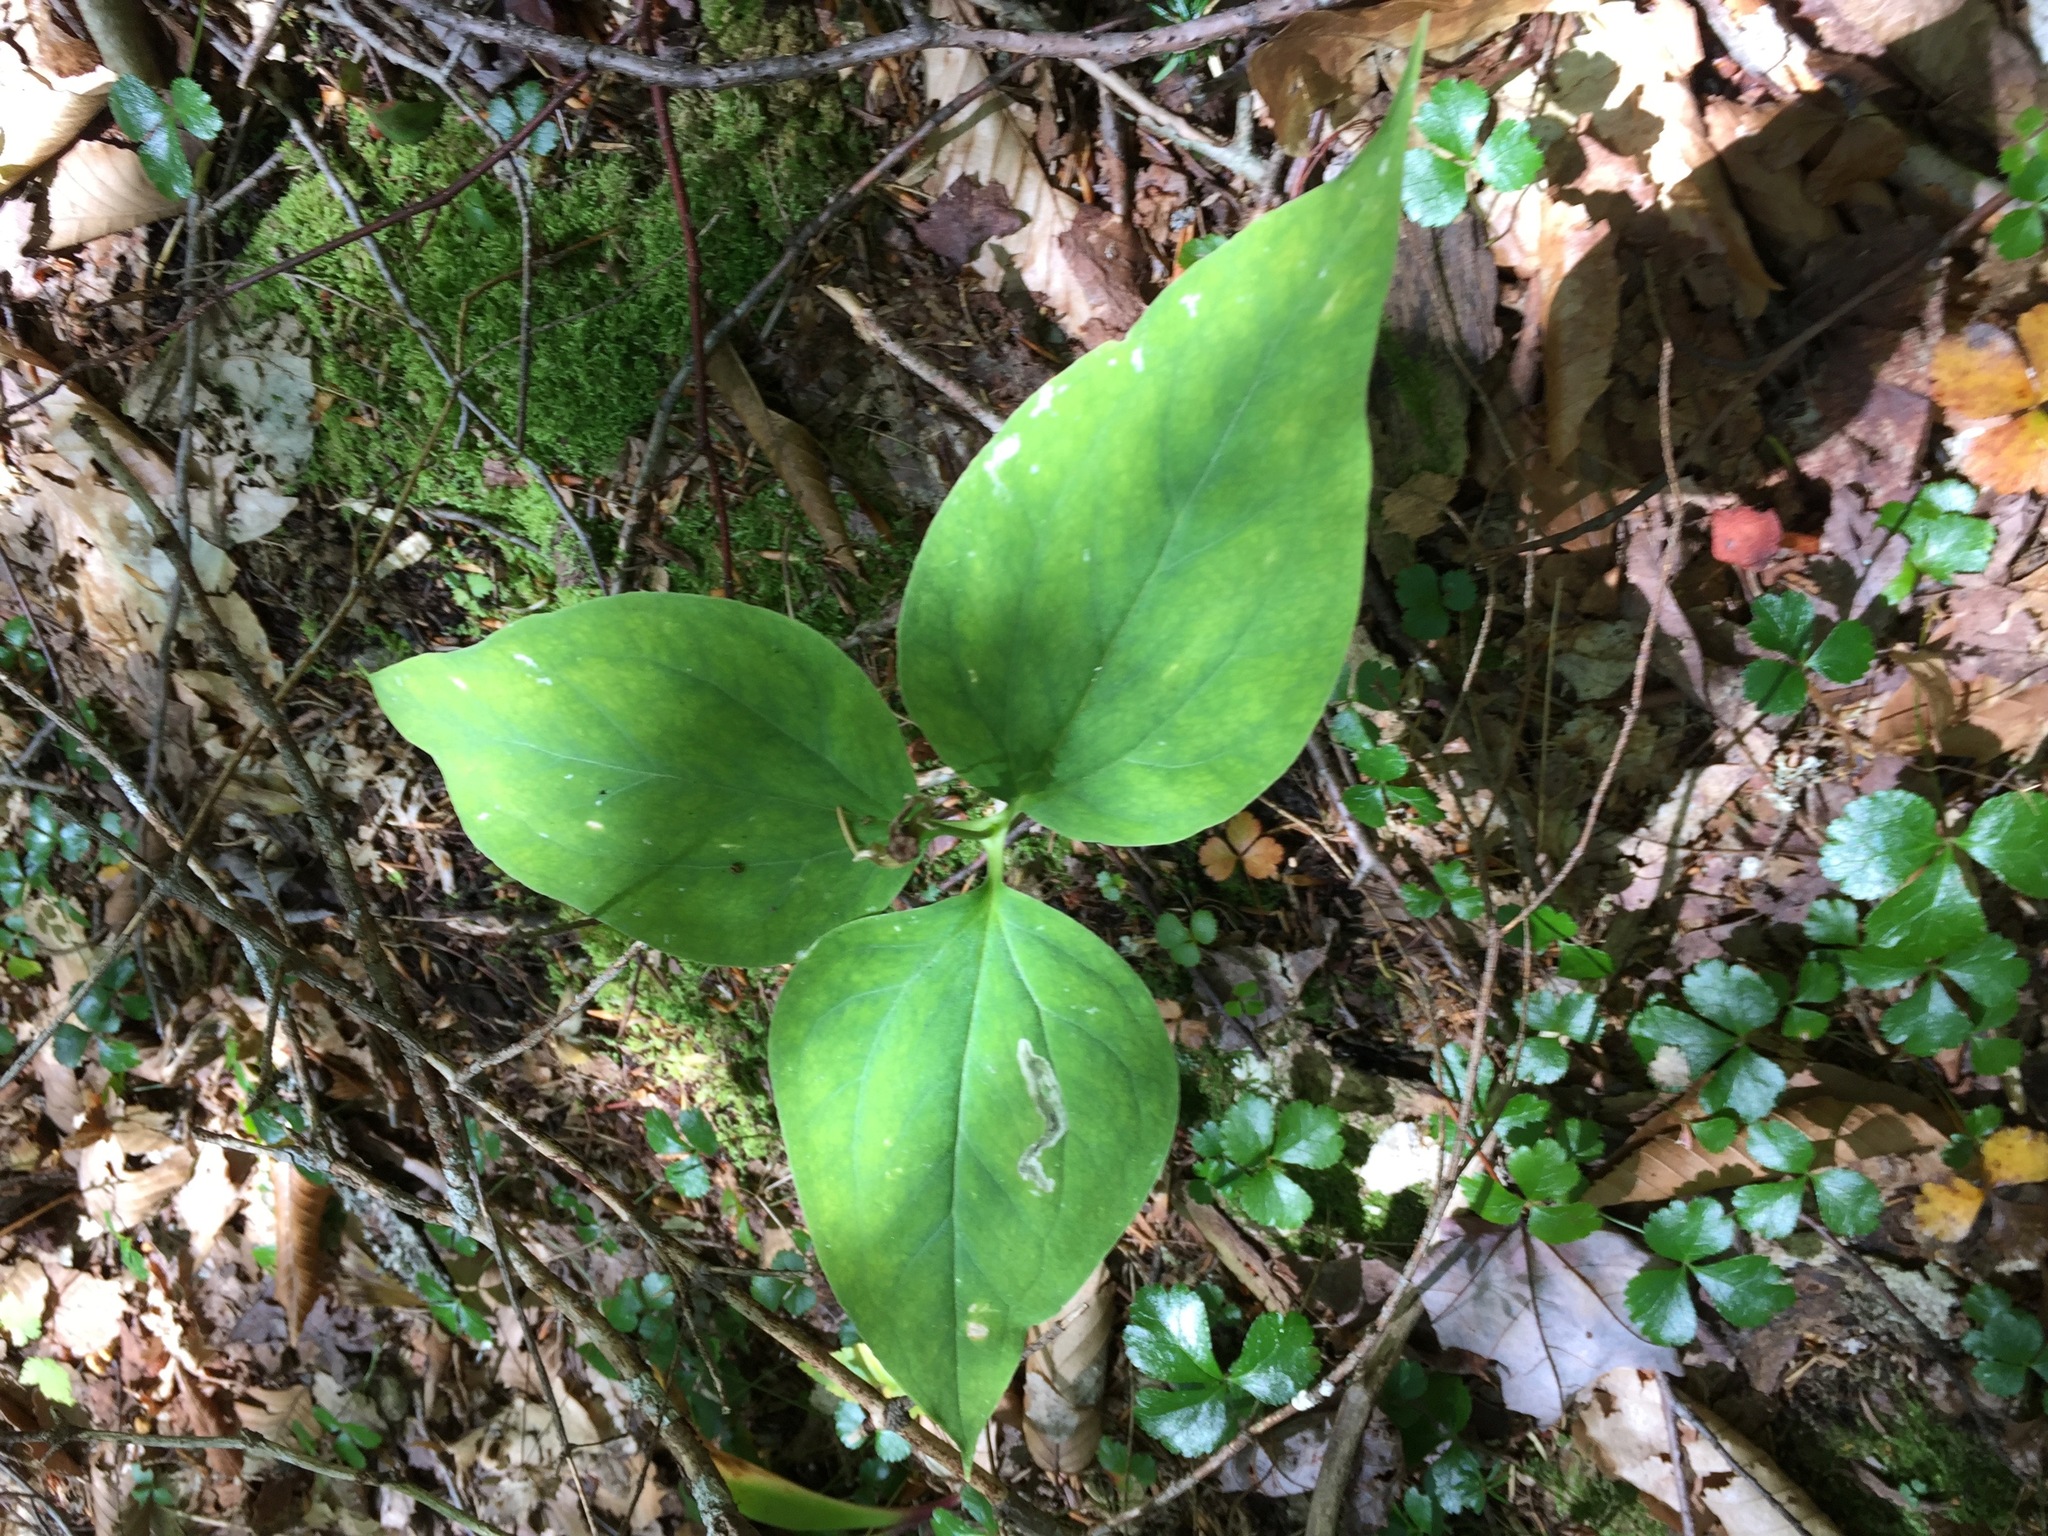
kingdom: Plantae
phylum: Tracheophyta
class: Liliopsida
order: Liliales
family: Melanthiaceae
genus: Trillium
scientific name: Trillium undulatum
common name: Paint trillium
